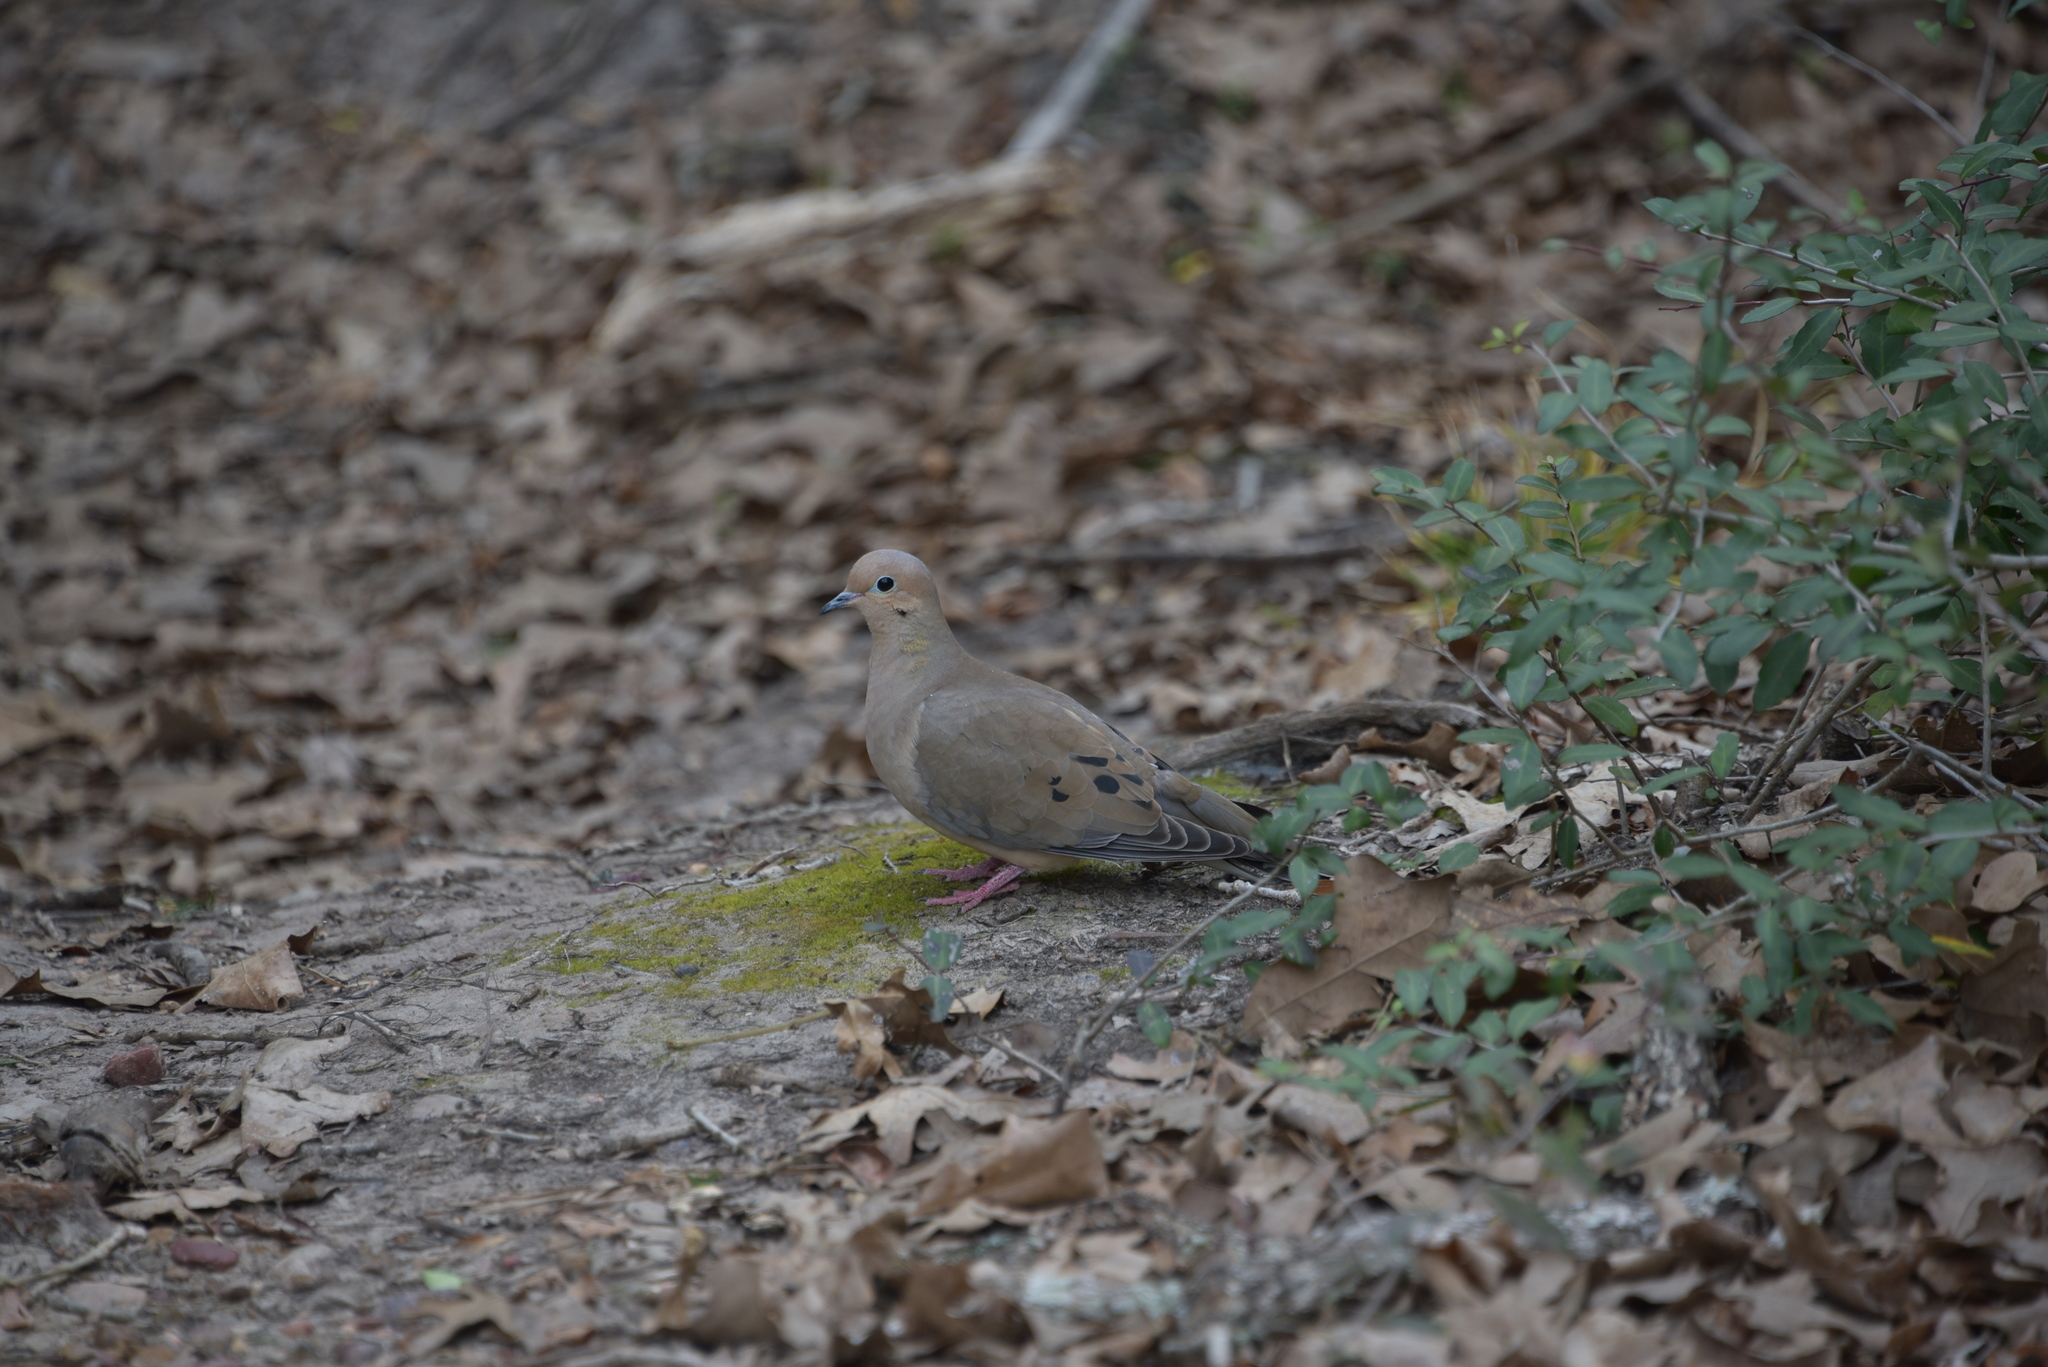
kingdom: Animalia
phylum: Chordata
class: Aves
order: Columbiformes
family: Columbidae
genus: Zenaida
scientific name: Zenaida macroura
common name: Mourning dove
